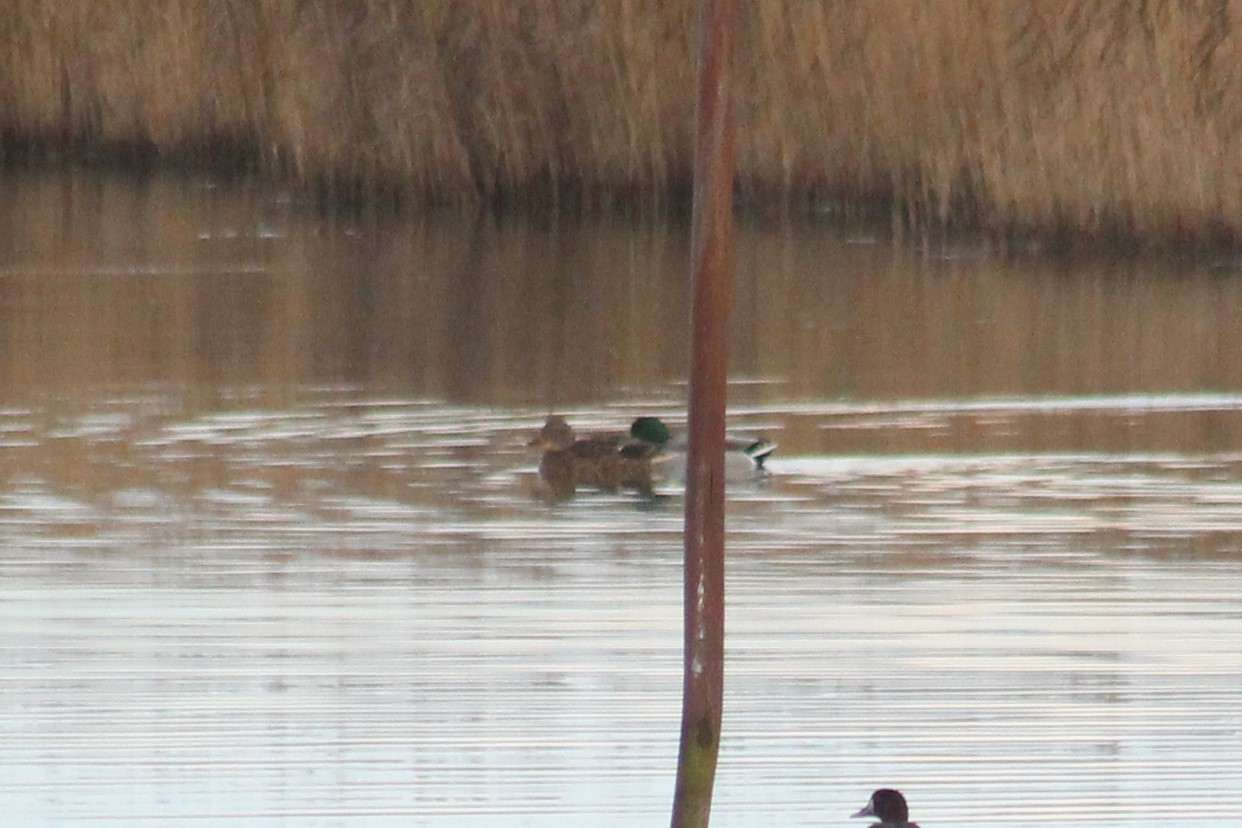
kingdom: Animalia
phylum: Chordata
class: Aves
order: Anseriformes
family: Anatidae
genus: Anas
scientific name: Anas platyrhynchos
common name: Mallard
